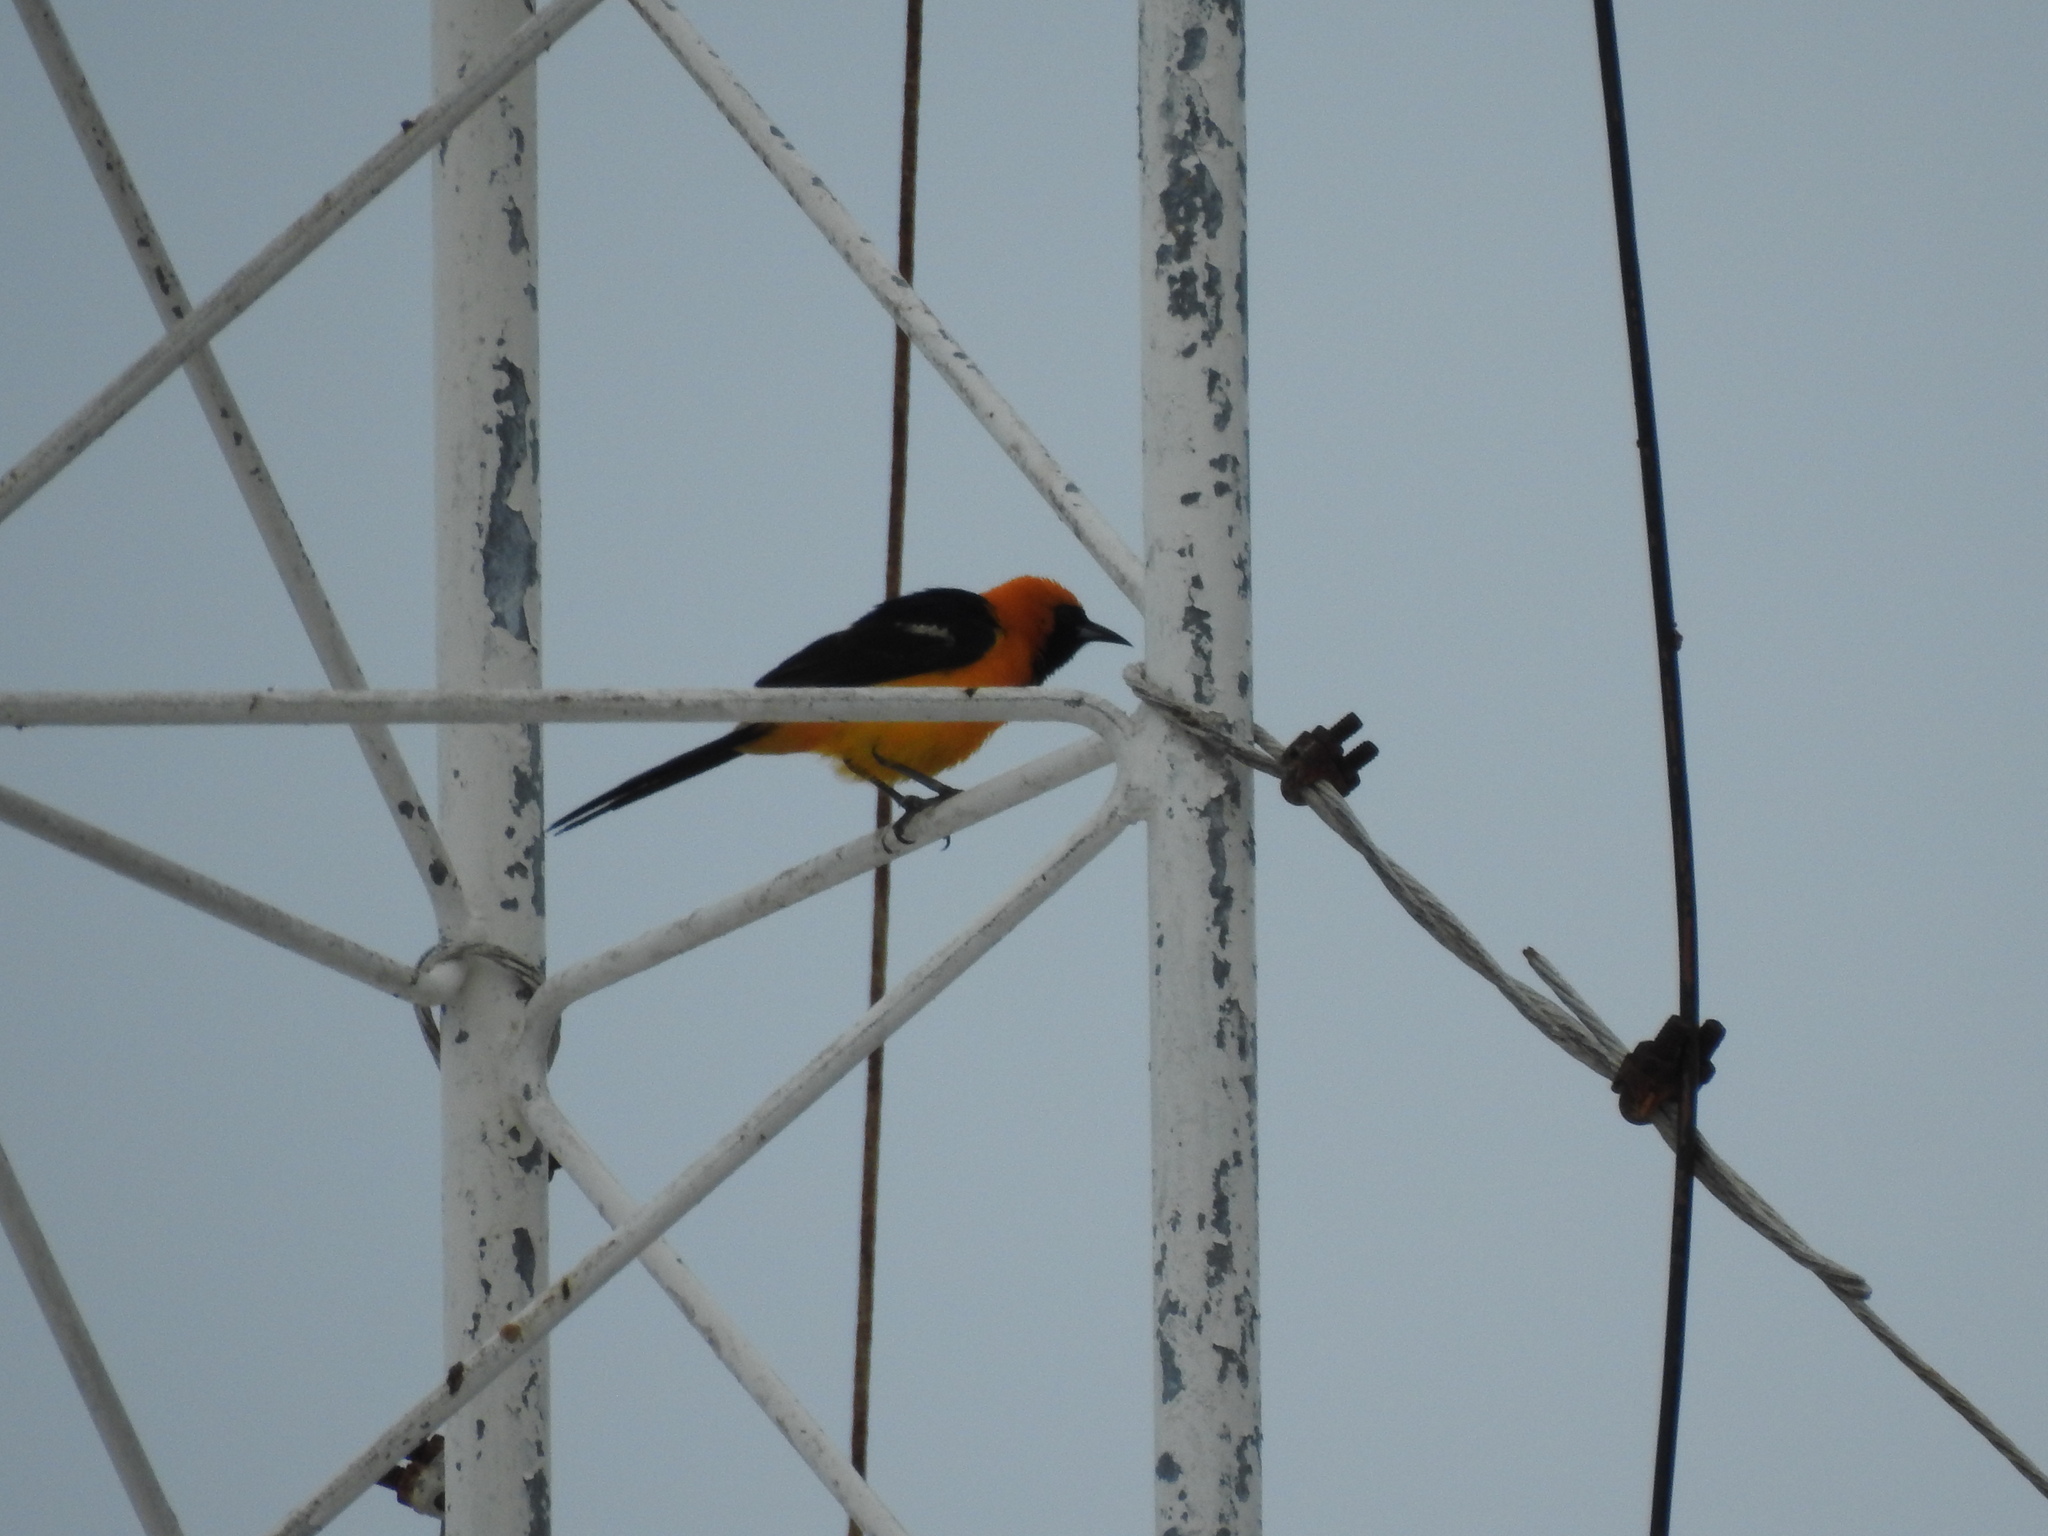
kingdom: Animalia
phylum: Chordata
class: Aves
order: Passeriformes
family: Icteridae
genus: Icterus
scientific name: Icterus cucullatus
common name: Hooded oriole
